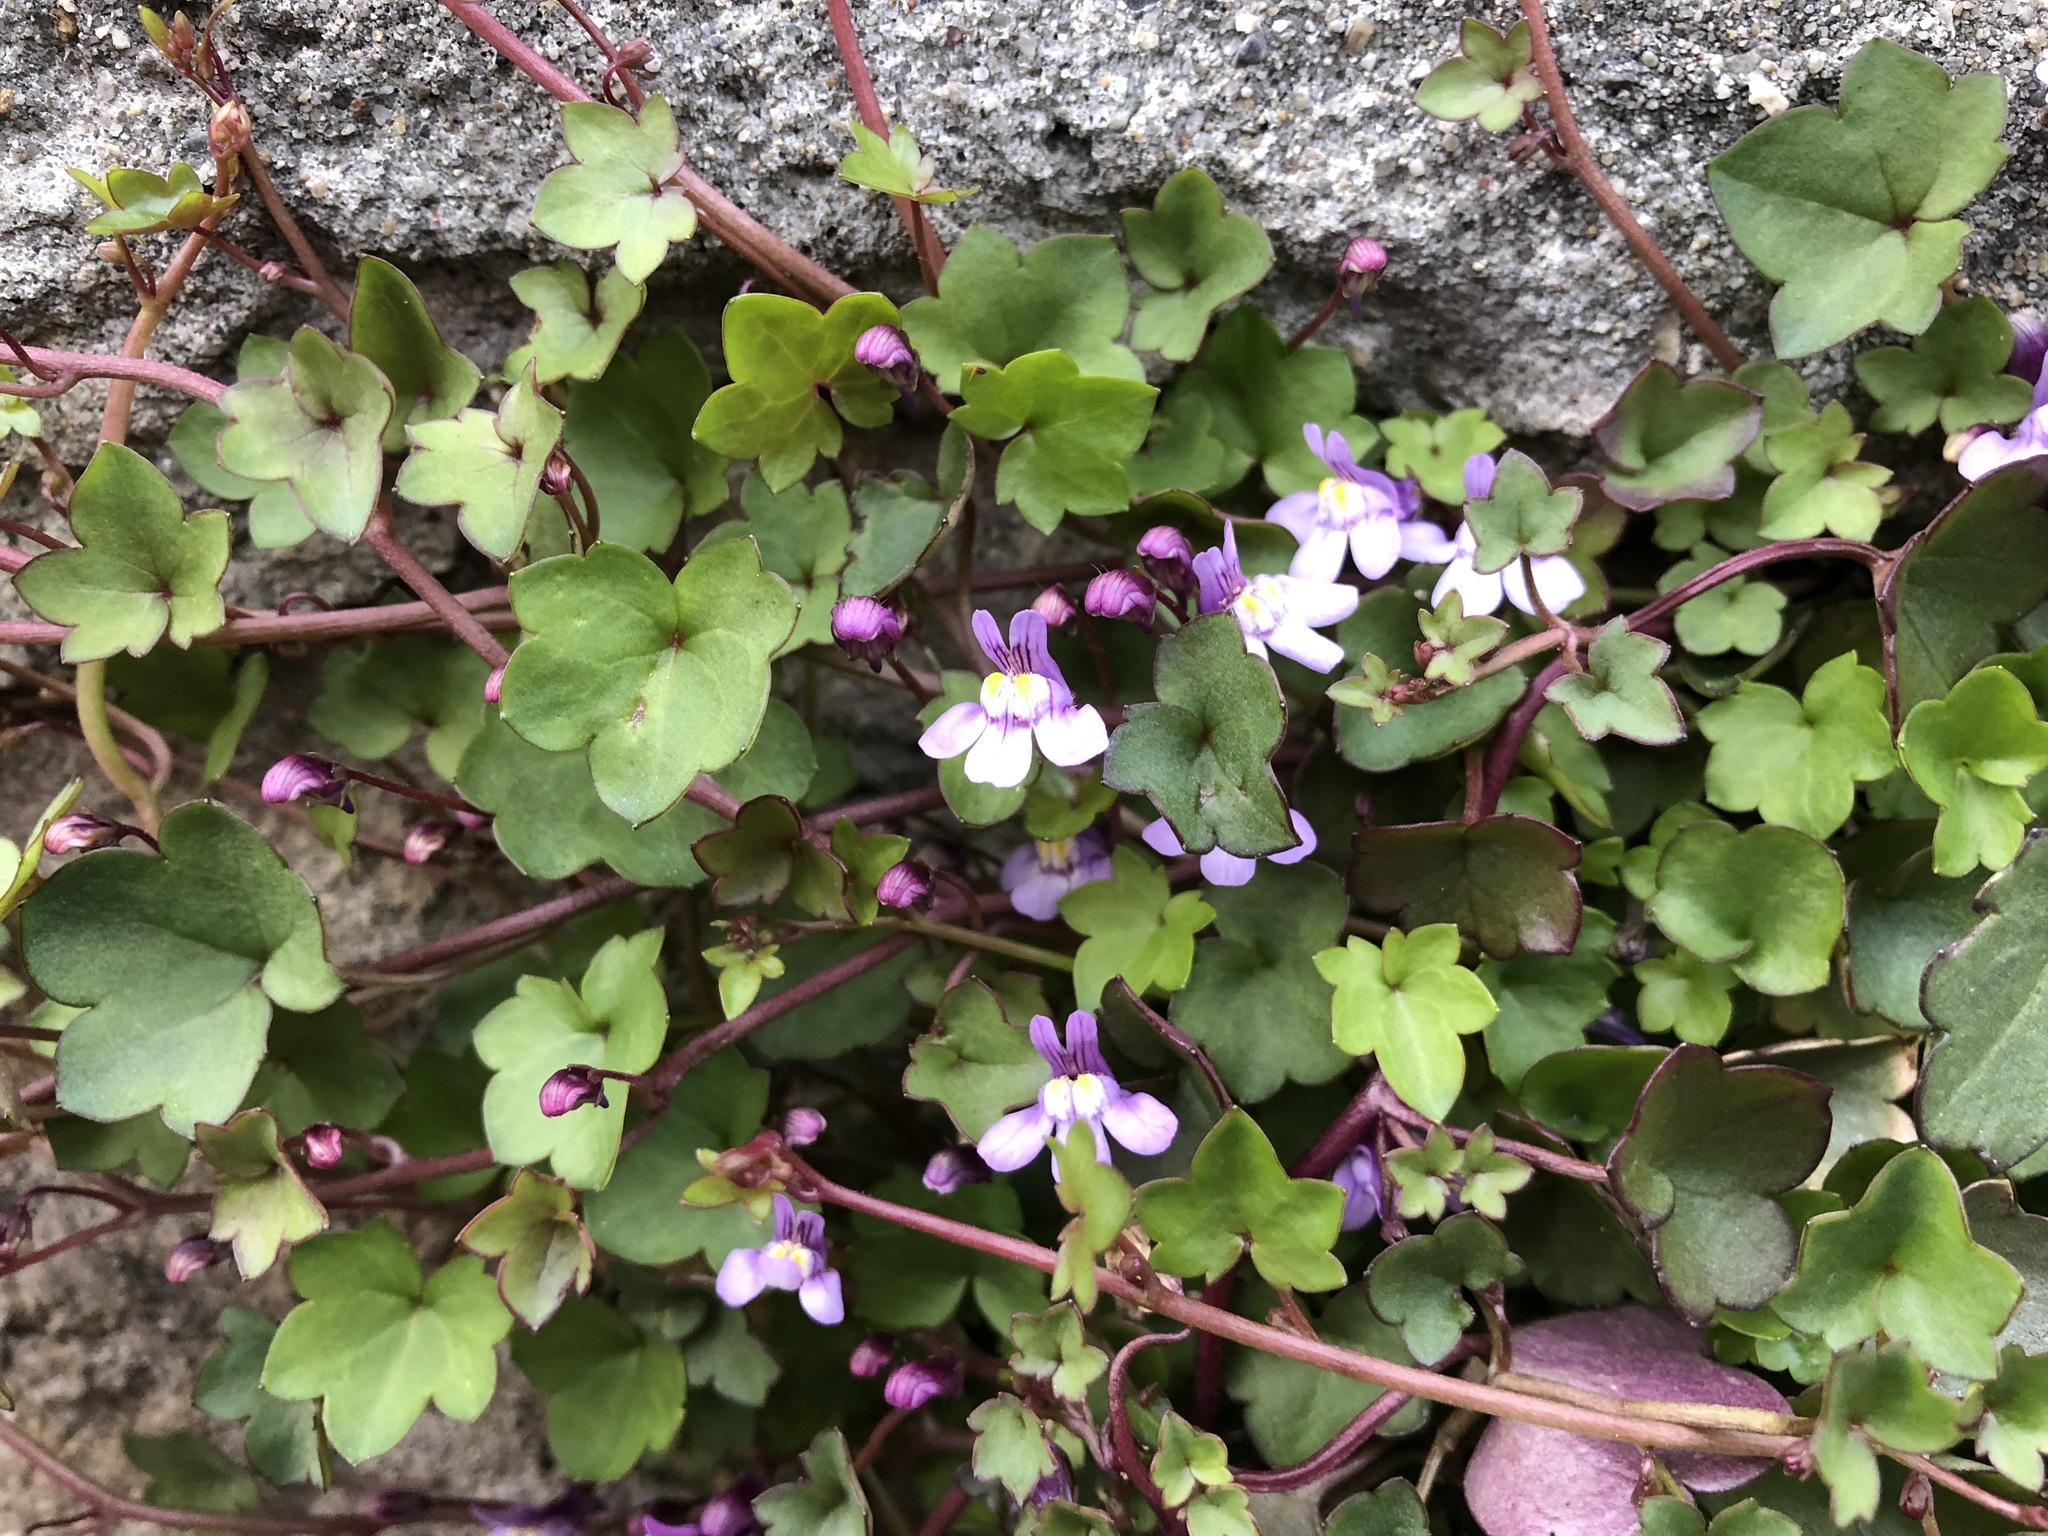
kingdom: Plantae
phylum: Tracheophyta
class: Magnoliopsida
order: Lamiales
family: Plantaginaceae
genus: Cymbalaria
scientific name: Cymbalaria muralis
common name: Ivy-leaved toadflax
